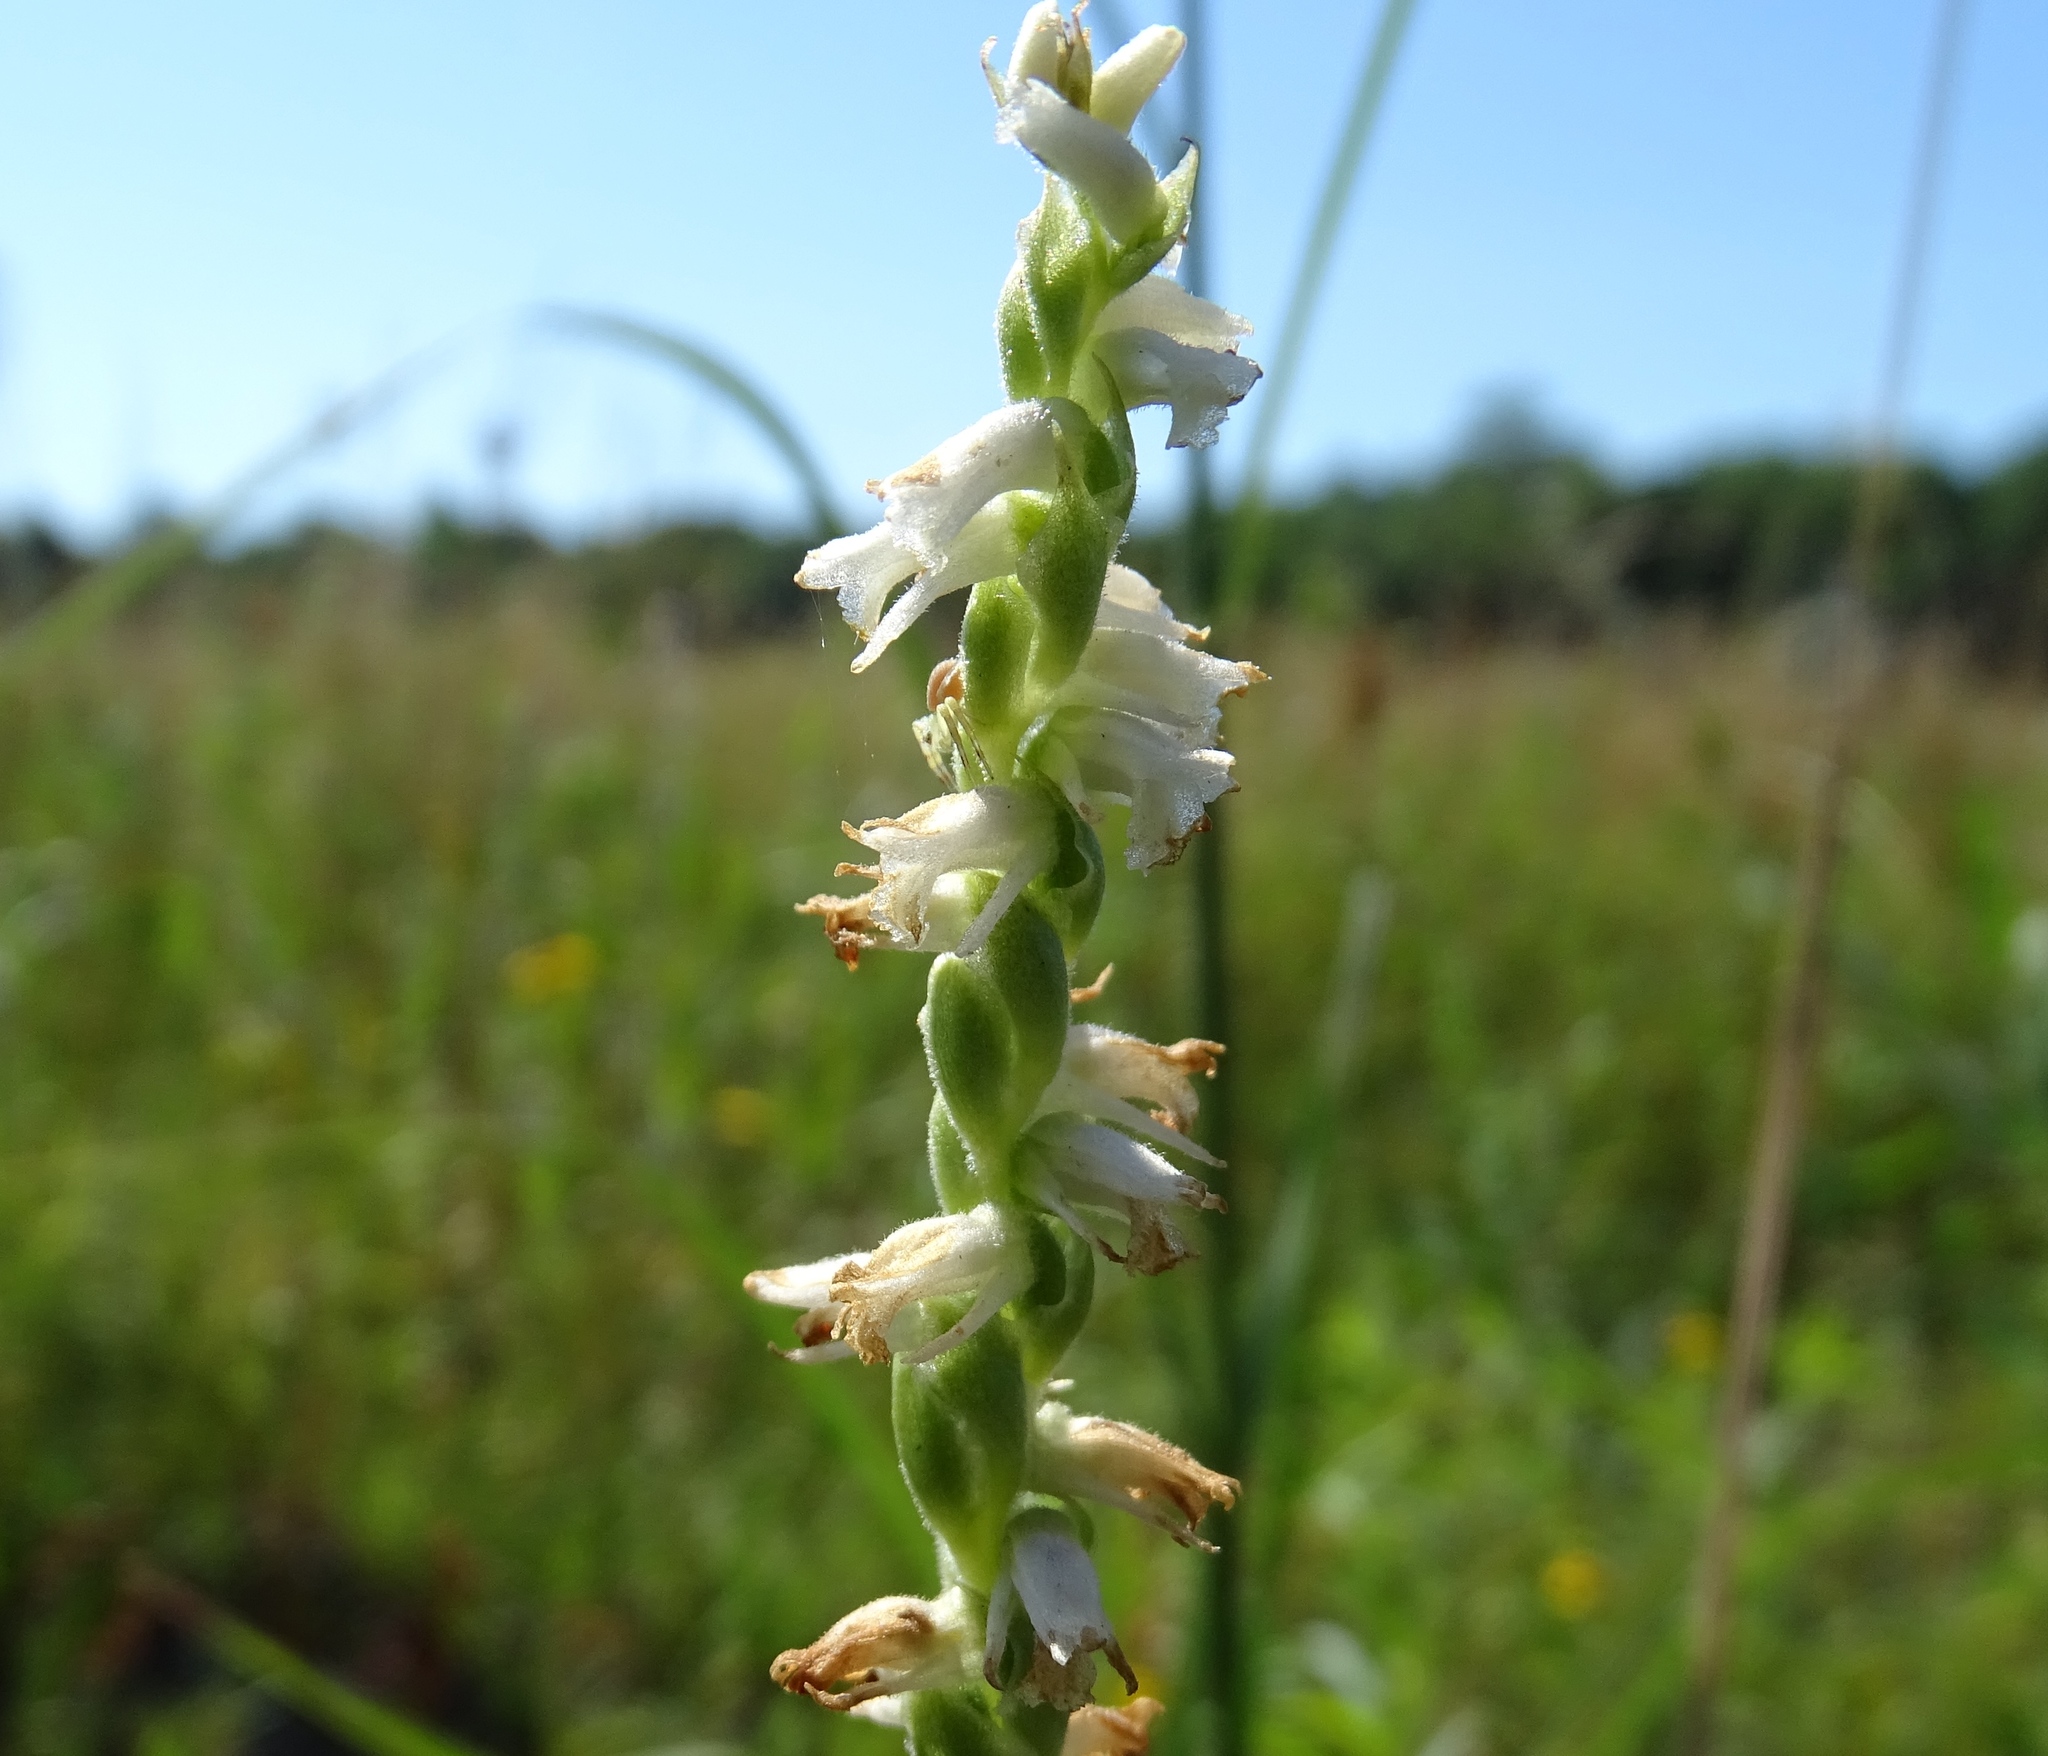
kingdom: Plantae
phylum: Tracheophyta
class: Liliopsida
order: Asparagales
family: Orchidaceae
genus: Spiranthes
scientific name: Spiranthes vernalis
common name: Spring ladies'-tresses
